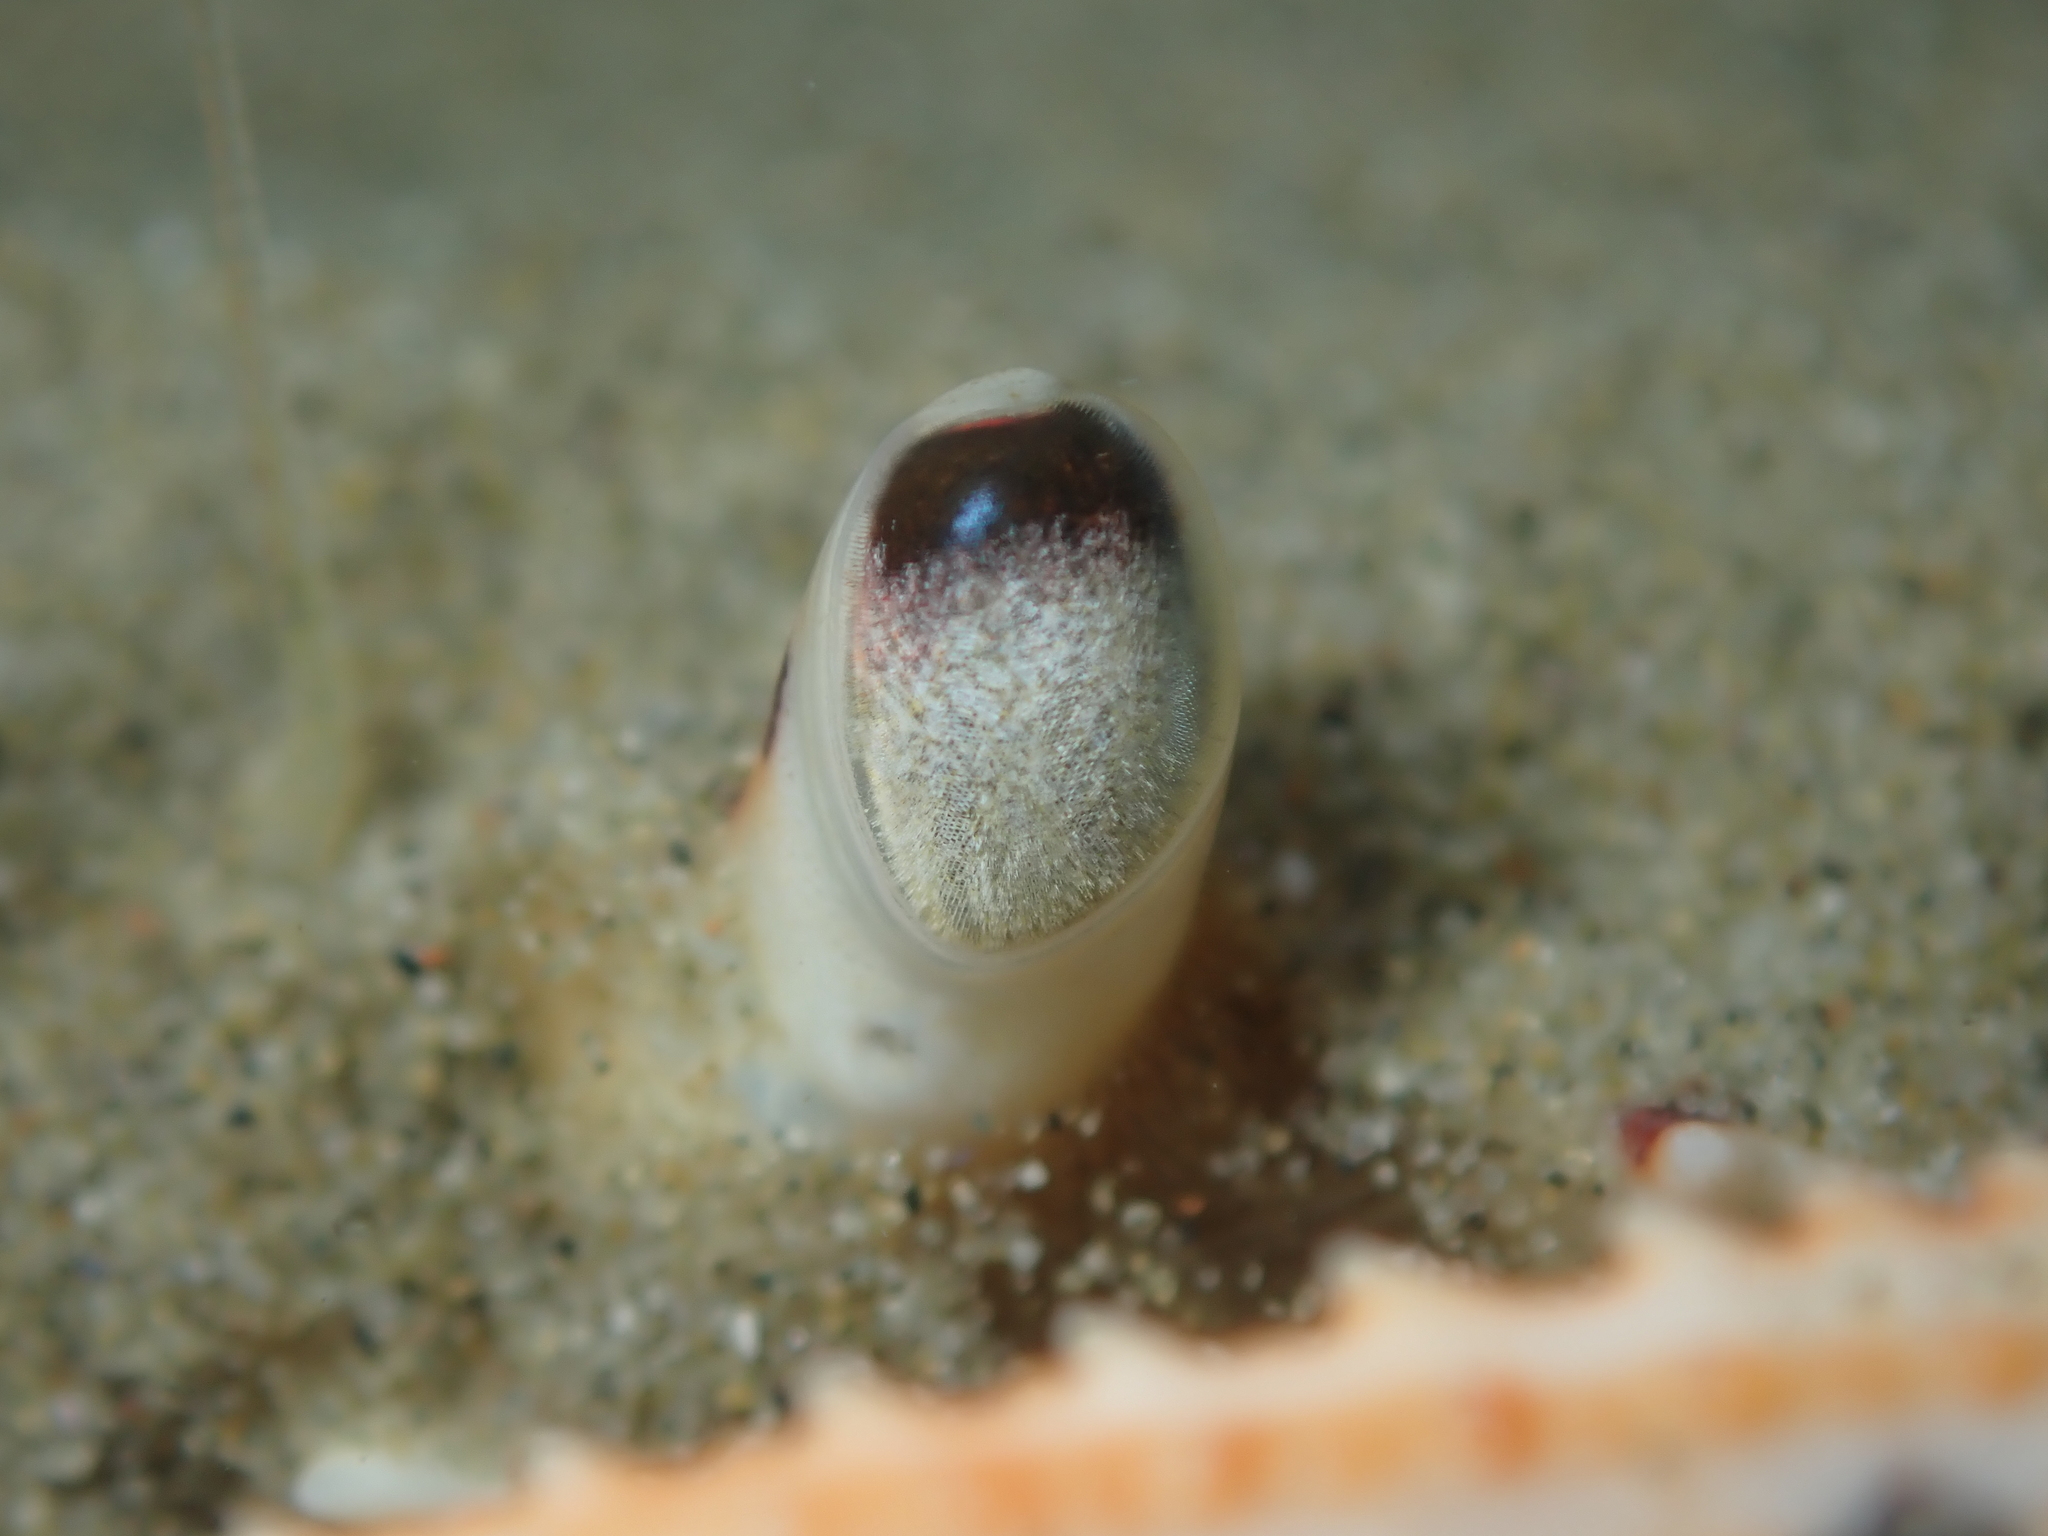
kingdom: Animalia
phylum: Arthropoda
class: Malacostraca
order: Decapoda
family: Ovalipidae
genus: Ovalipes
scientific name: Ovalipes catharus
